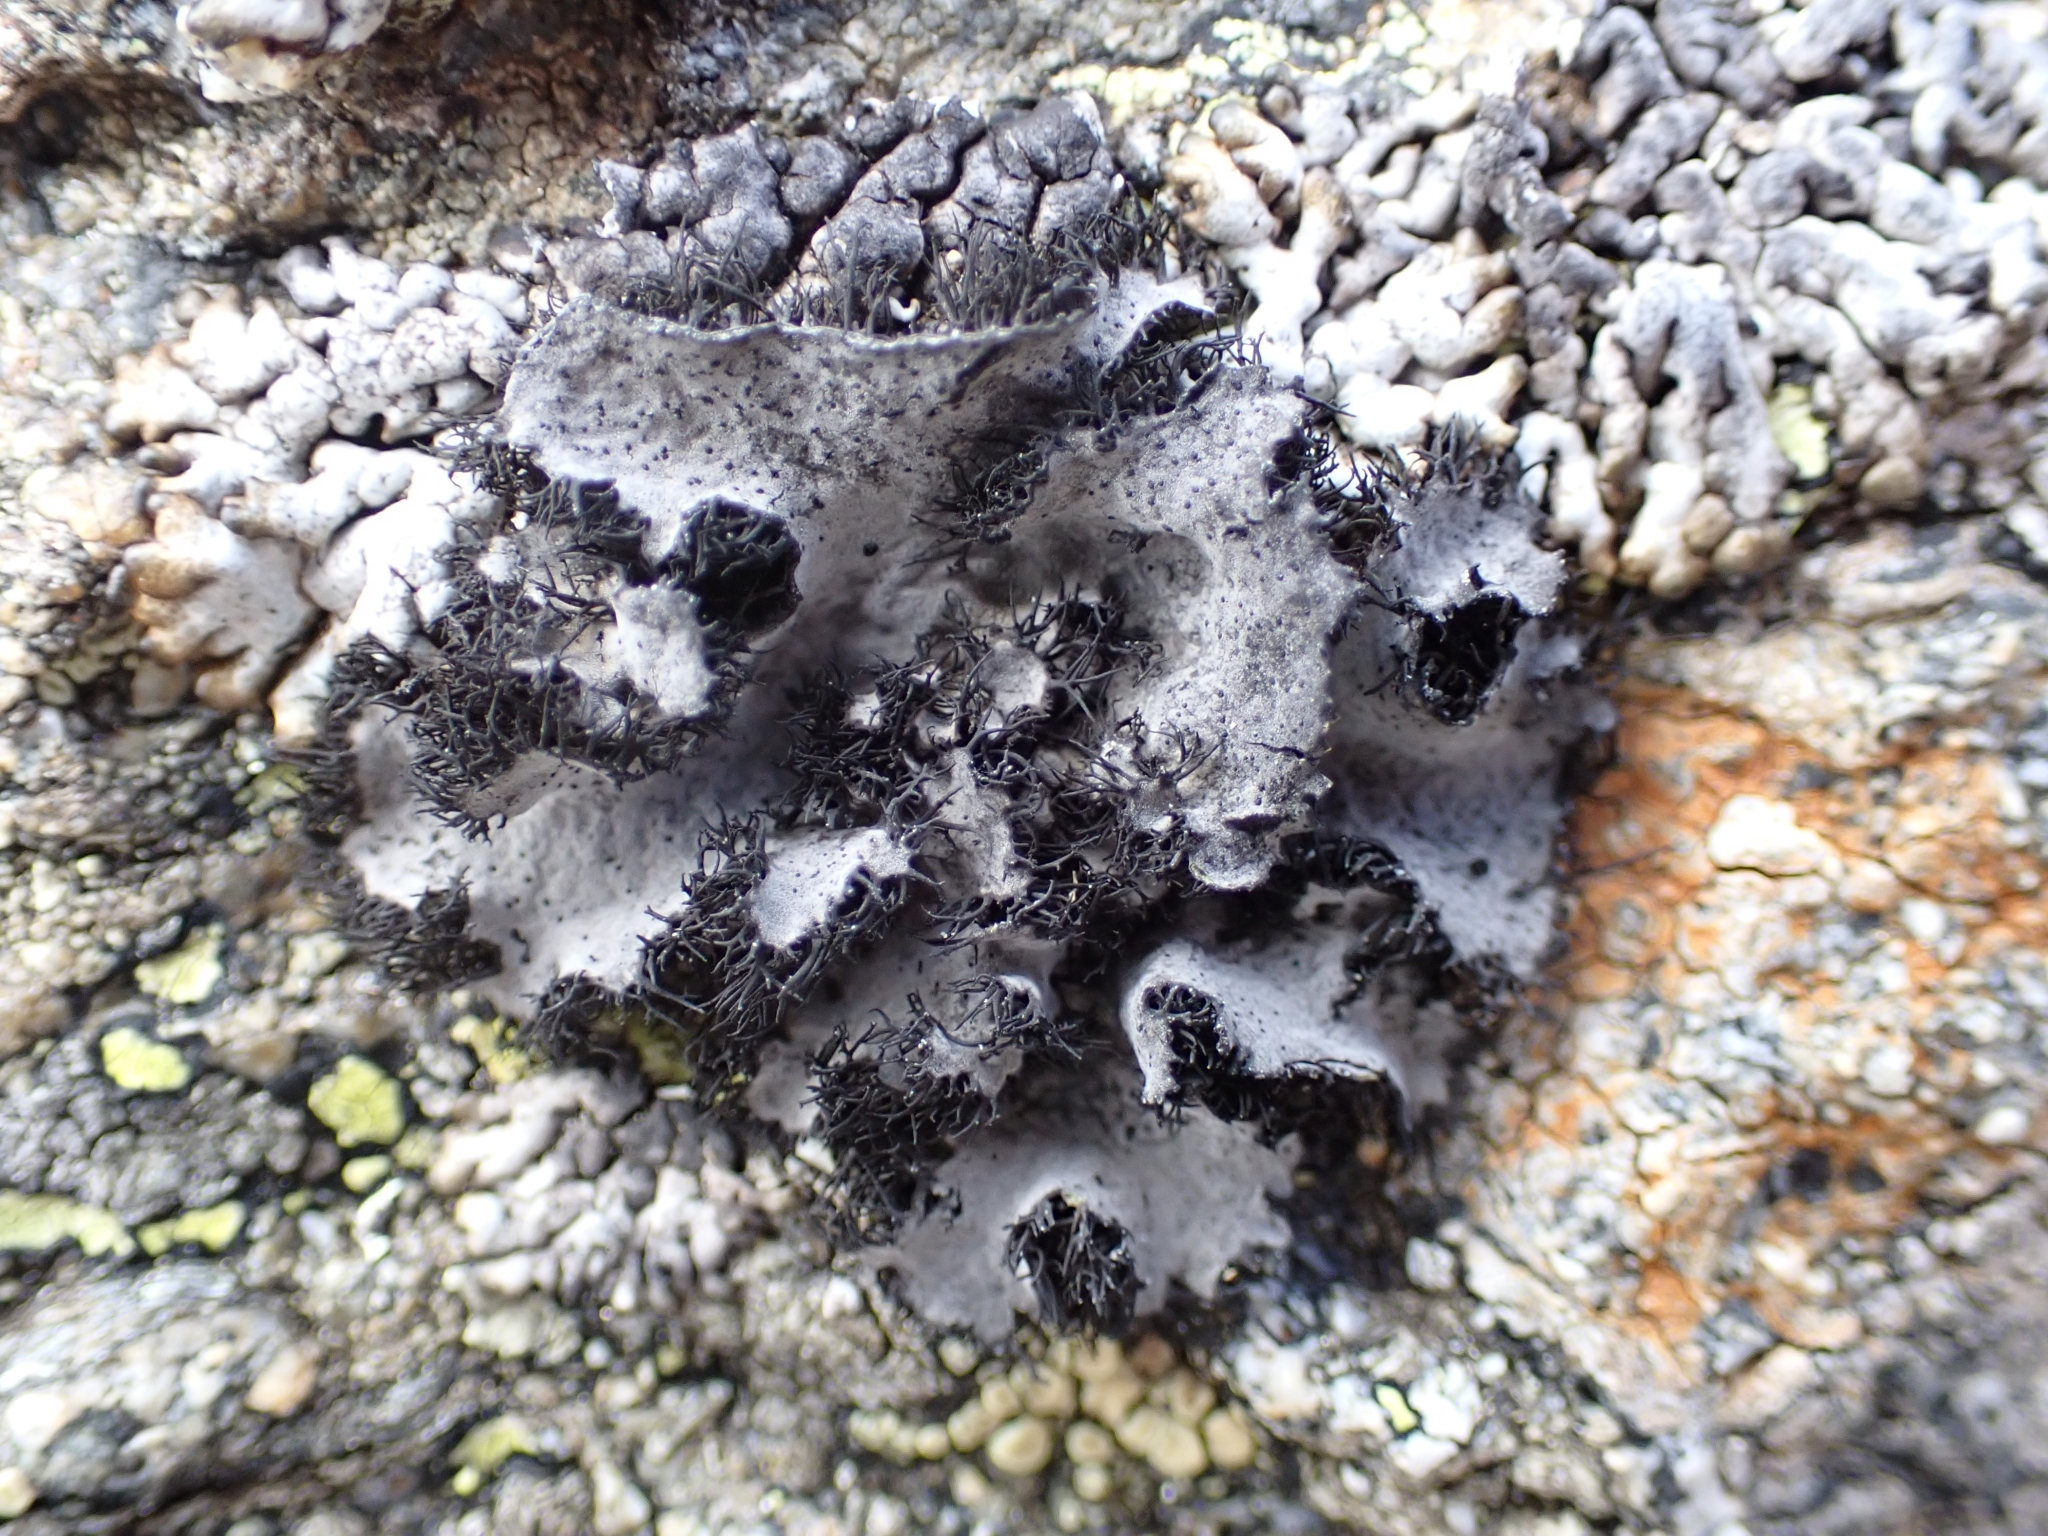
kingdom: Fungi
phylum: Ascomycota
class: Lecanoromycetes
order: Umbilicariales
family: Umbilicariaceae
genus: Umbilicaria
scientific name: Umbilicaria cylindrica
